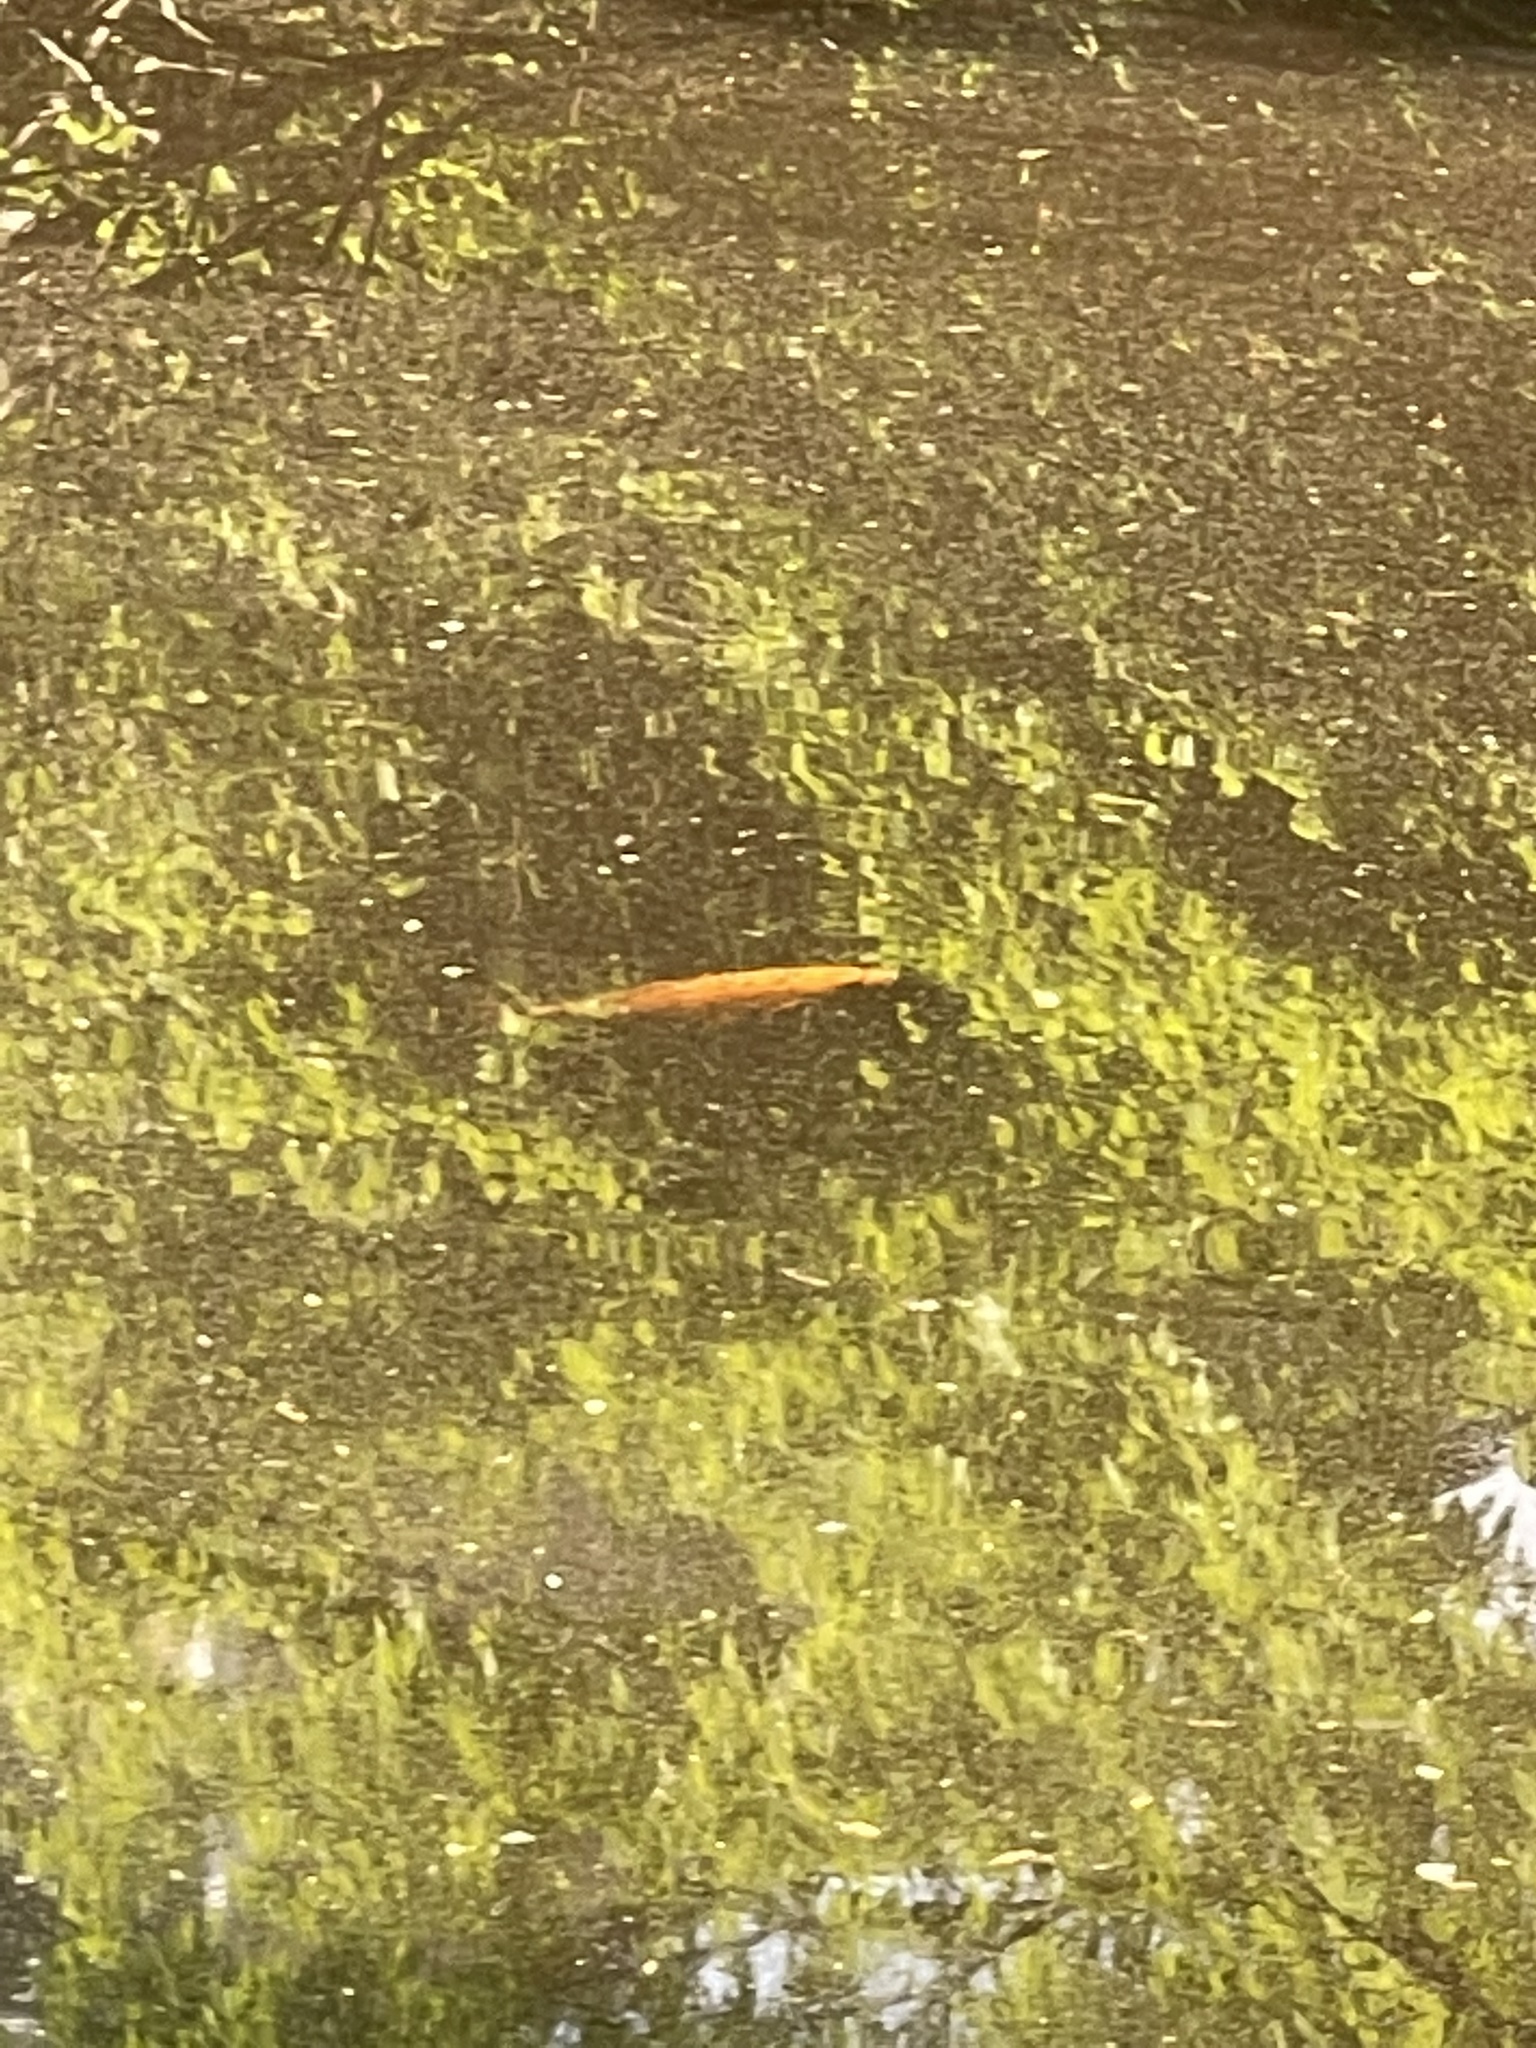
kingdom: Animalia
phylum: Chordata
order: Cypriniformes
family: Cyprinidae
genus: Cyprinus
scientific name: Cyprinus rubrofuscus
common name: Koi
